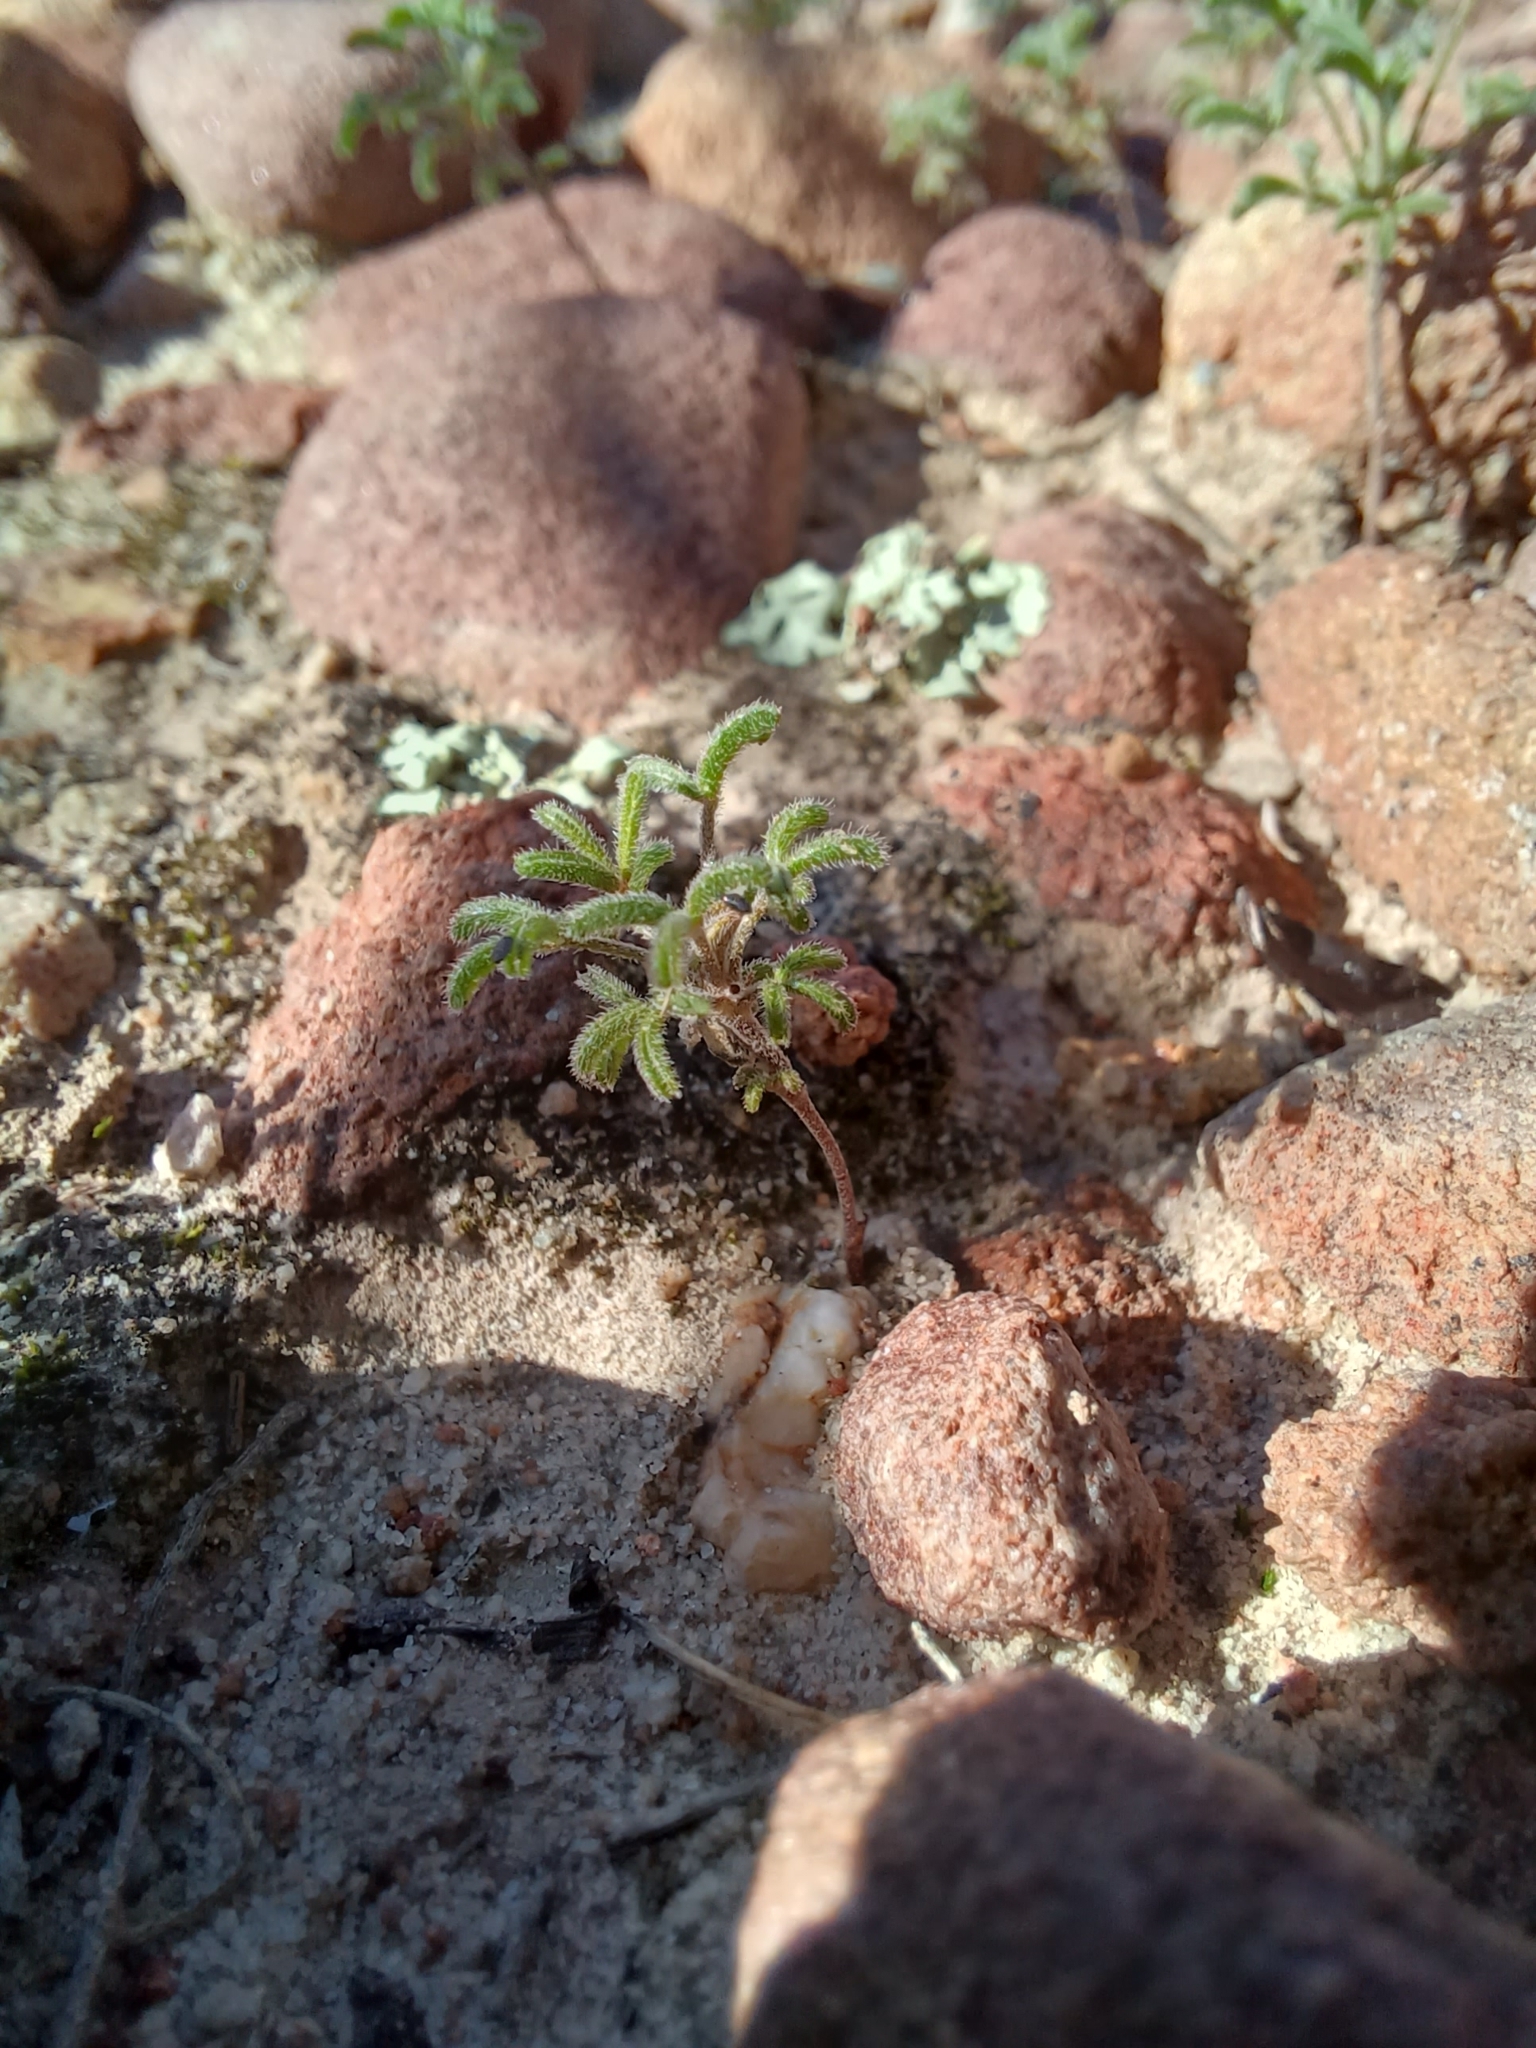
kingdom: Plantae
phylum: Tracheophyta
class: Magnoliopsida
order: Oxalidales
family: Oxalidaceae
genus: Oxalis
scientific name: Oxalis ciliaris
